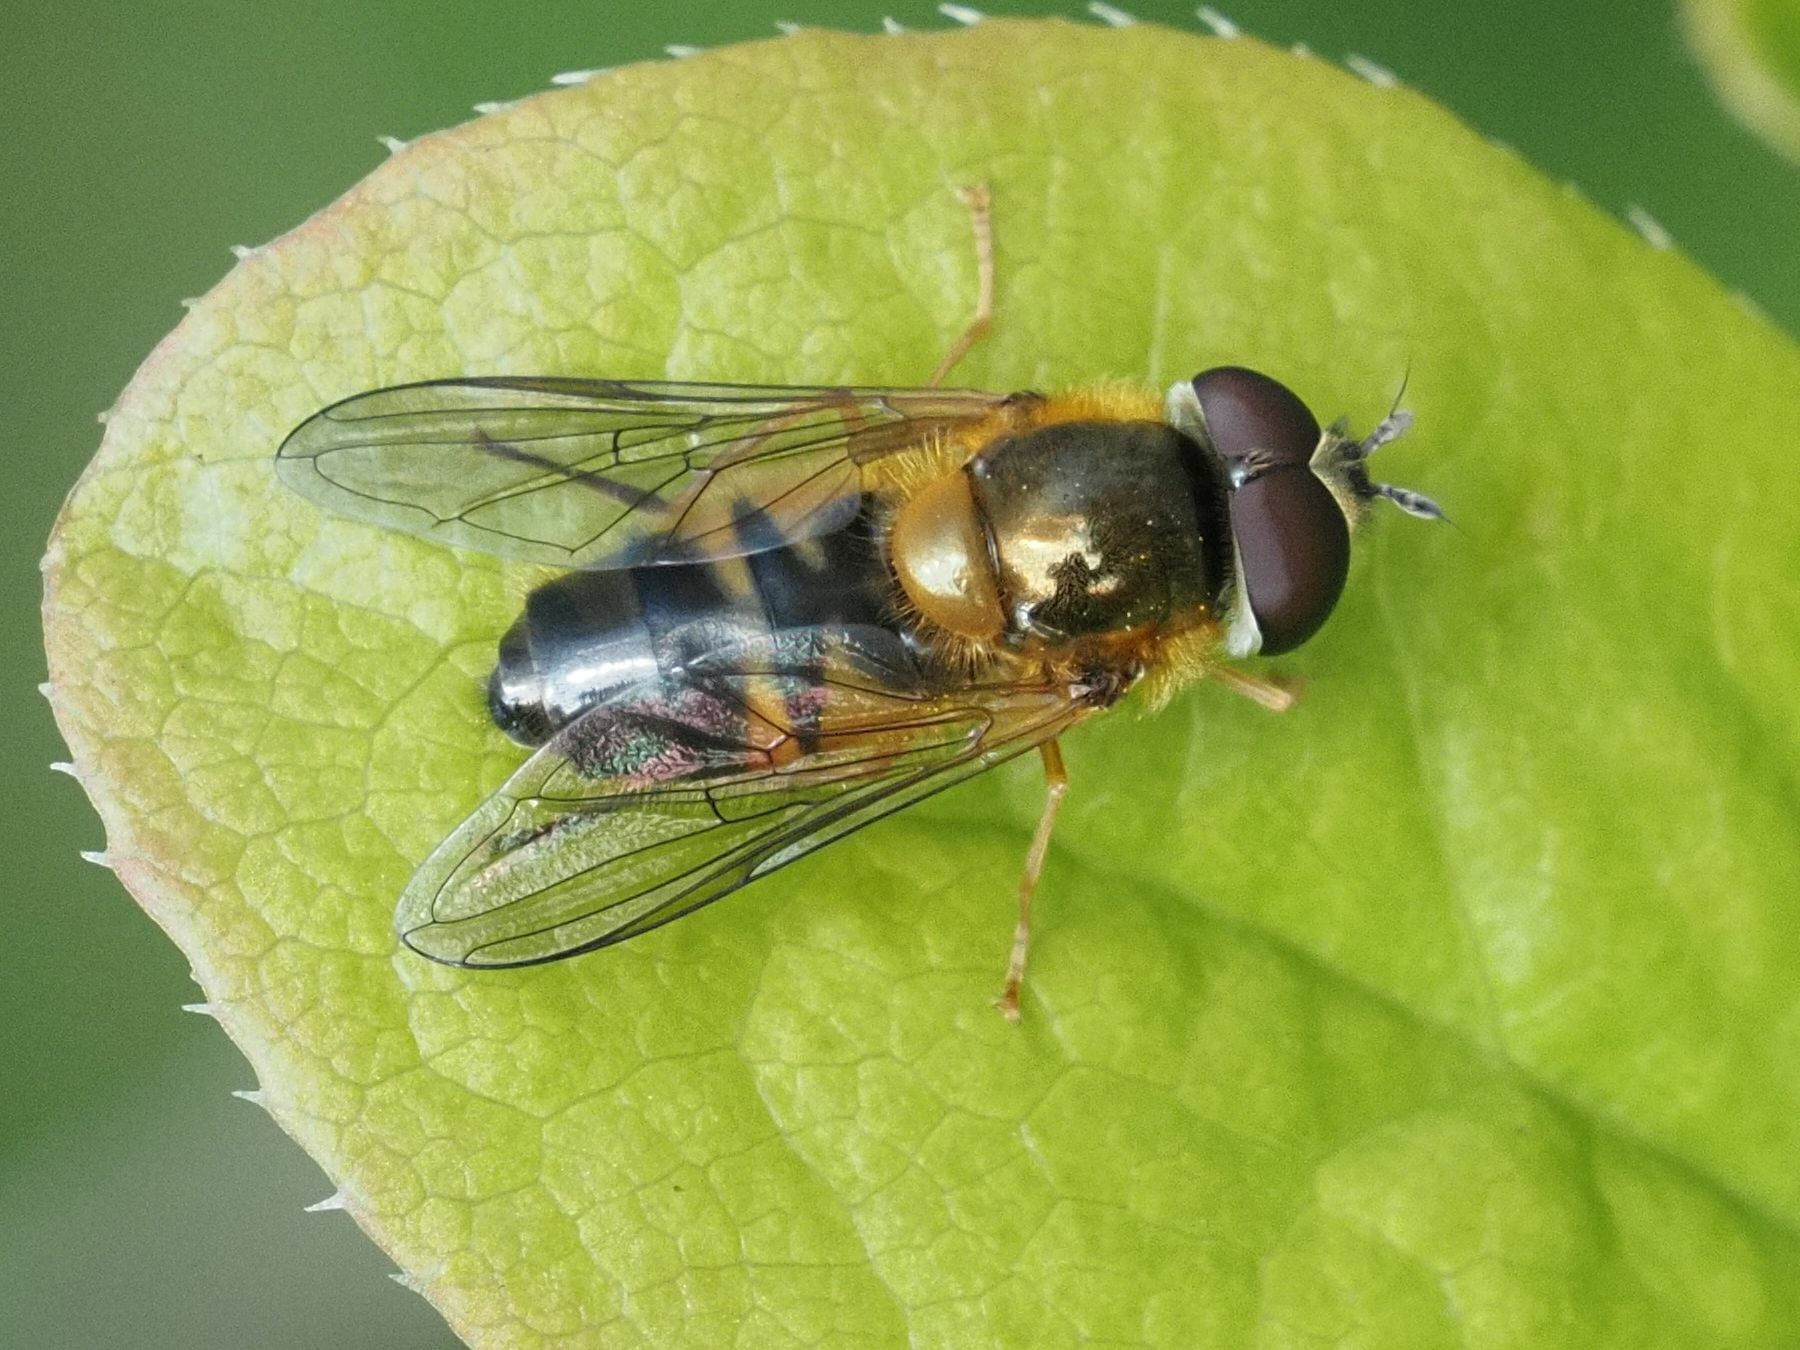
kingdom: Animalia
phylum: Arthropoda
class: Insecta
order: Diptera
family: Syrphidae
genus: Epistrophe
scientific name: Epistrophe eligans
